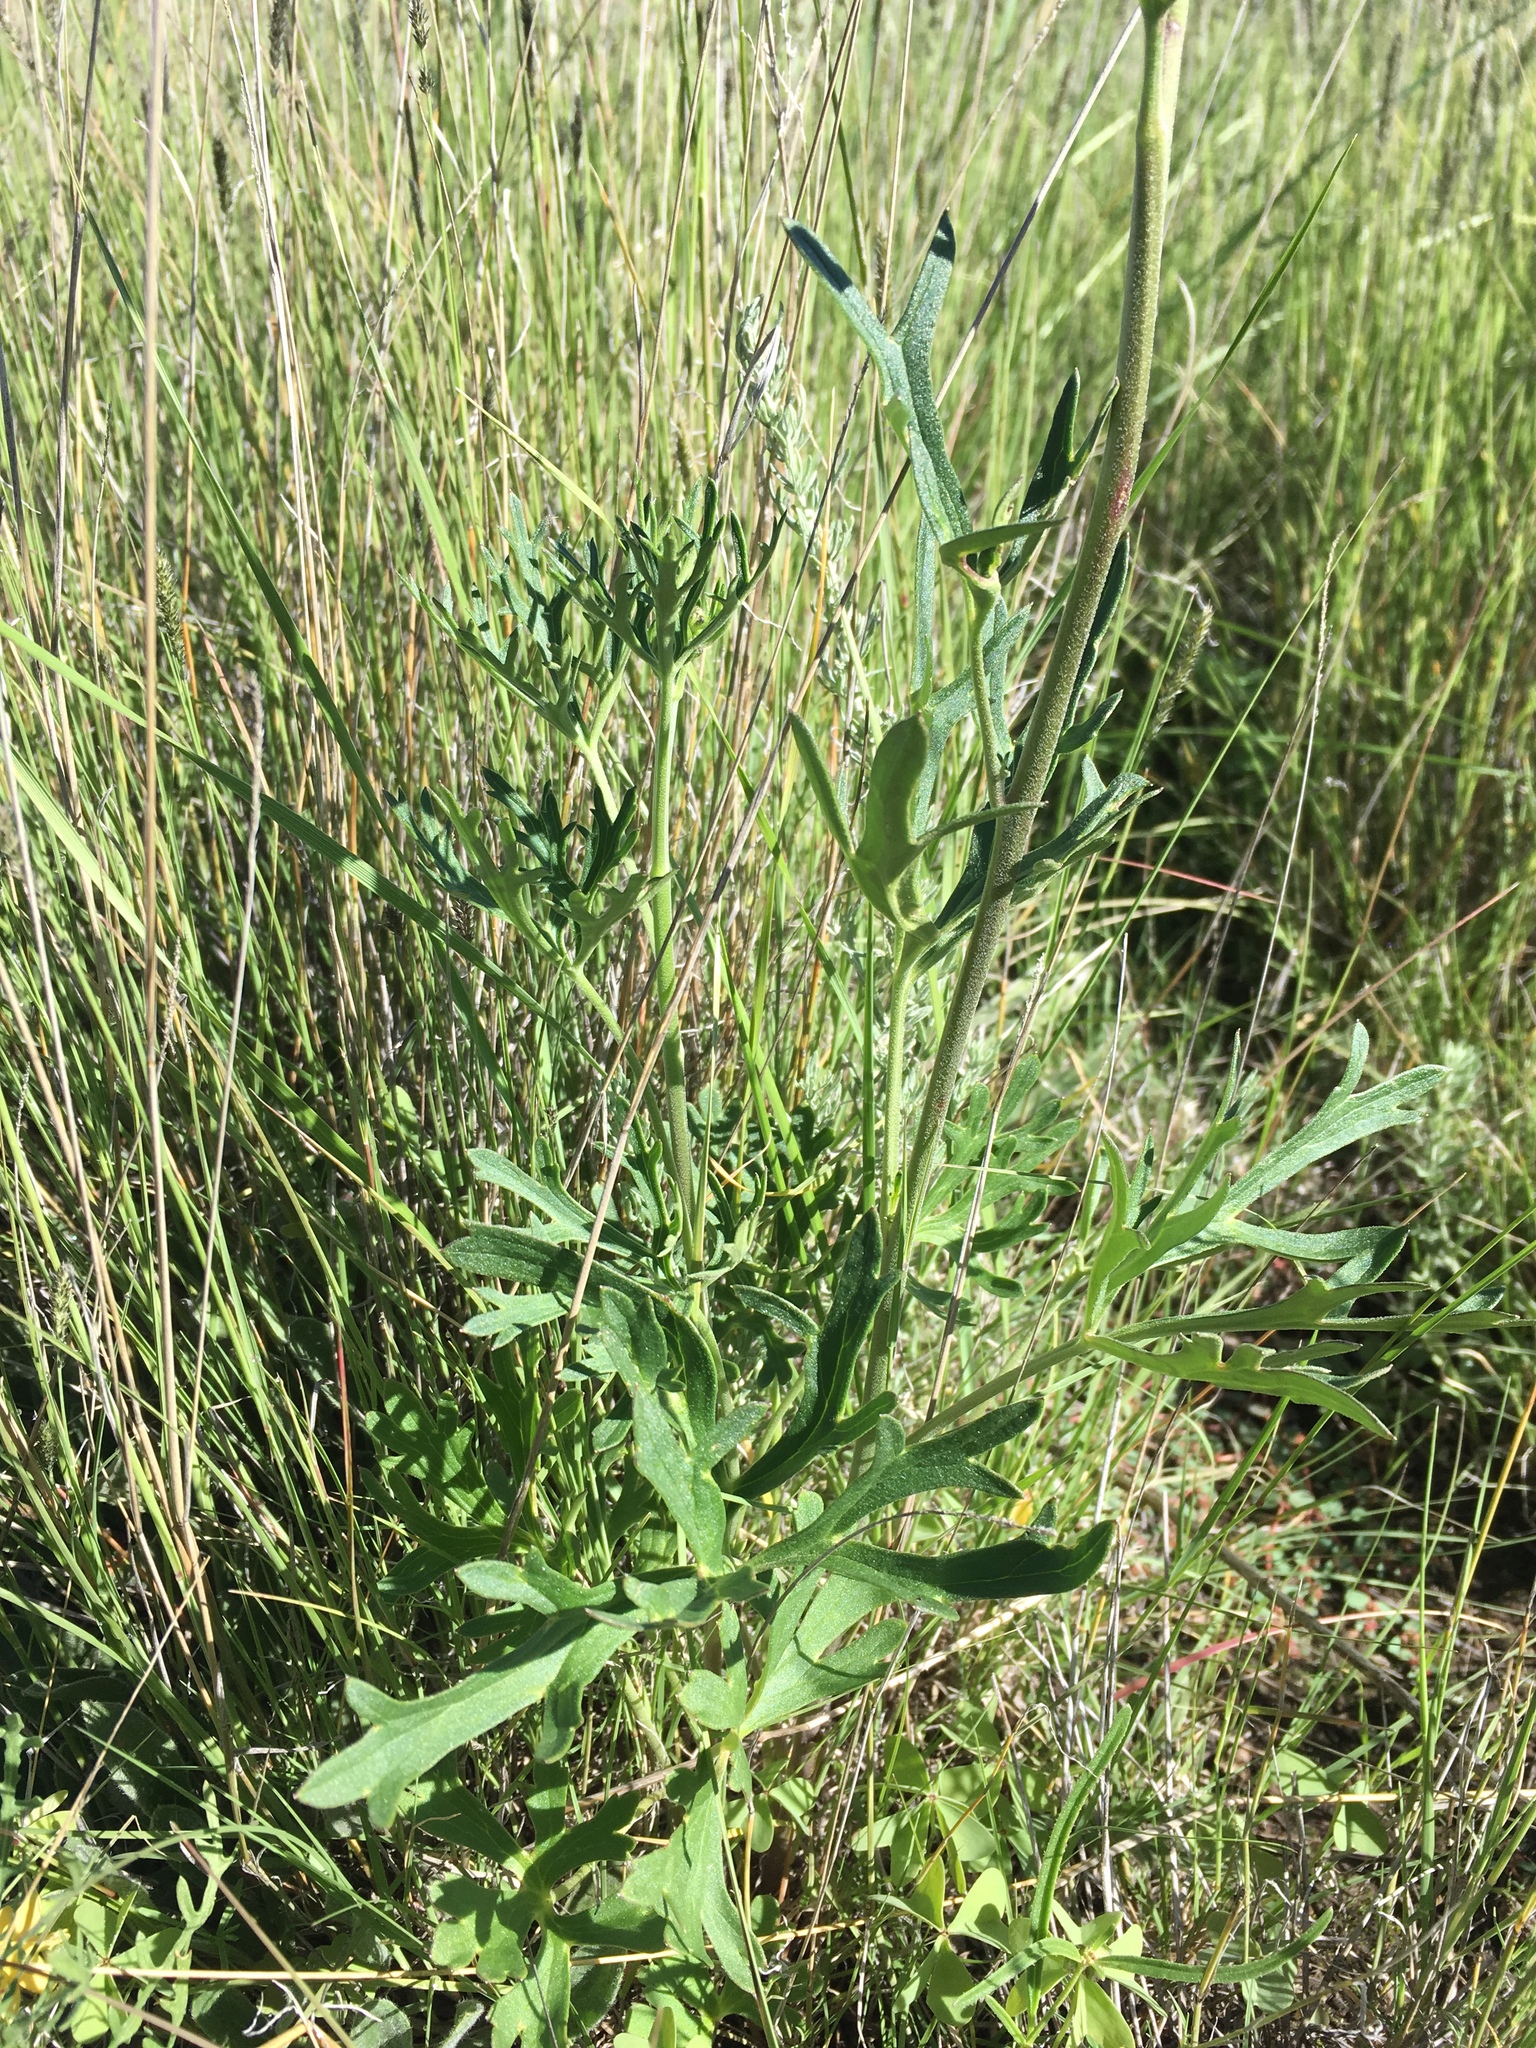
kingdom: Plantae
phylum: Tracheophyta
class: Magnoliopsida
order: Ranunculales
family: Ranunculaceae
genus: Delphinium
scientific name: Delphinium scopulorum
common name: Rocky mountain larkspur
